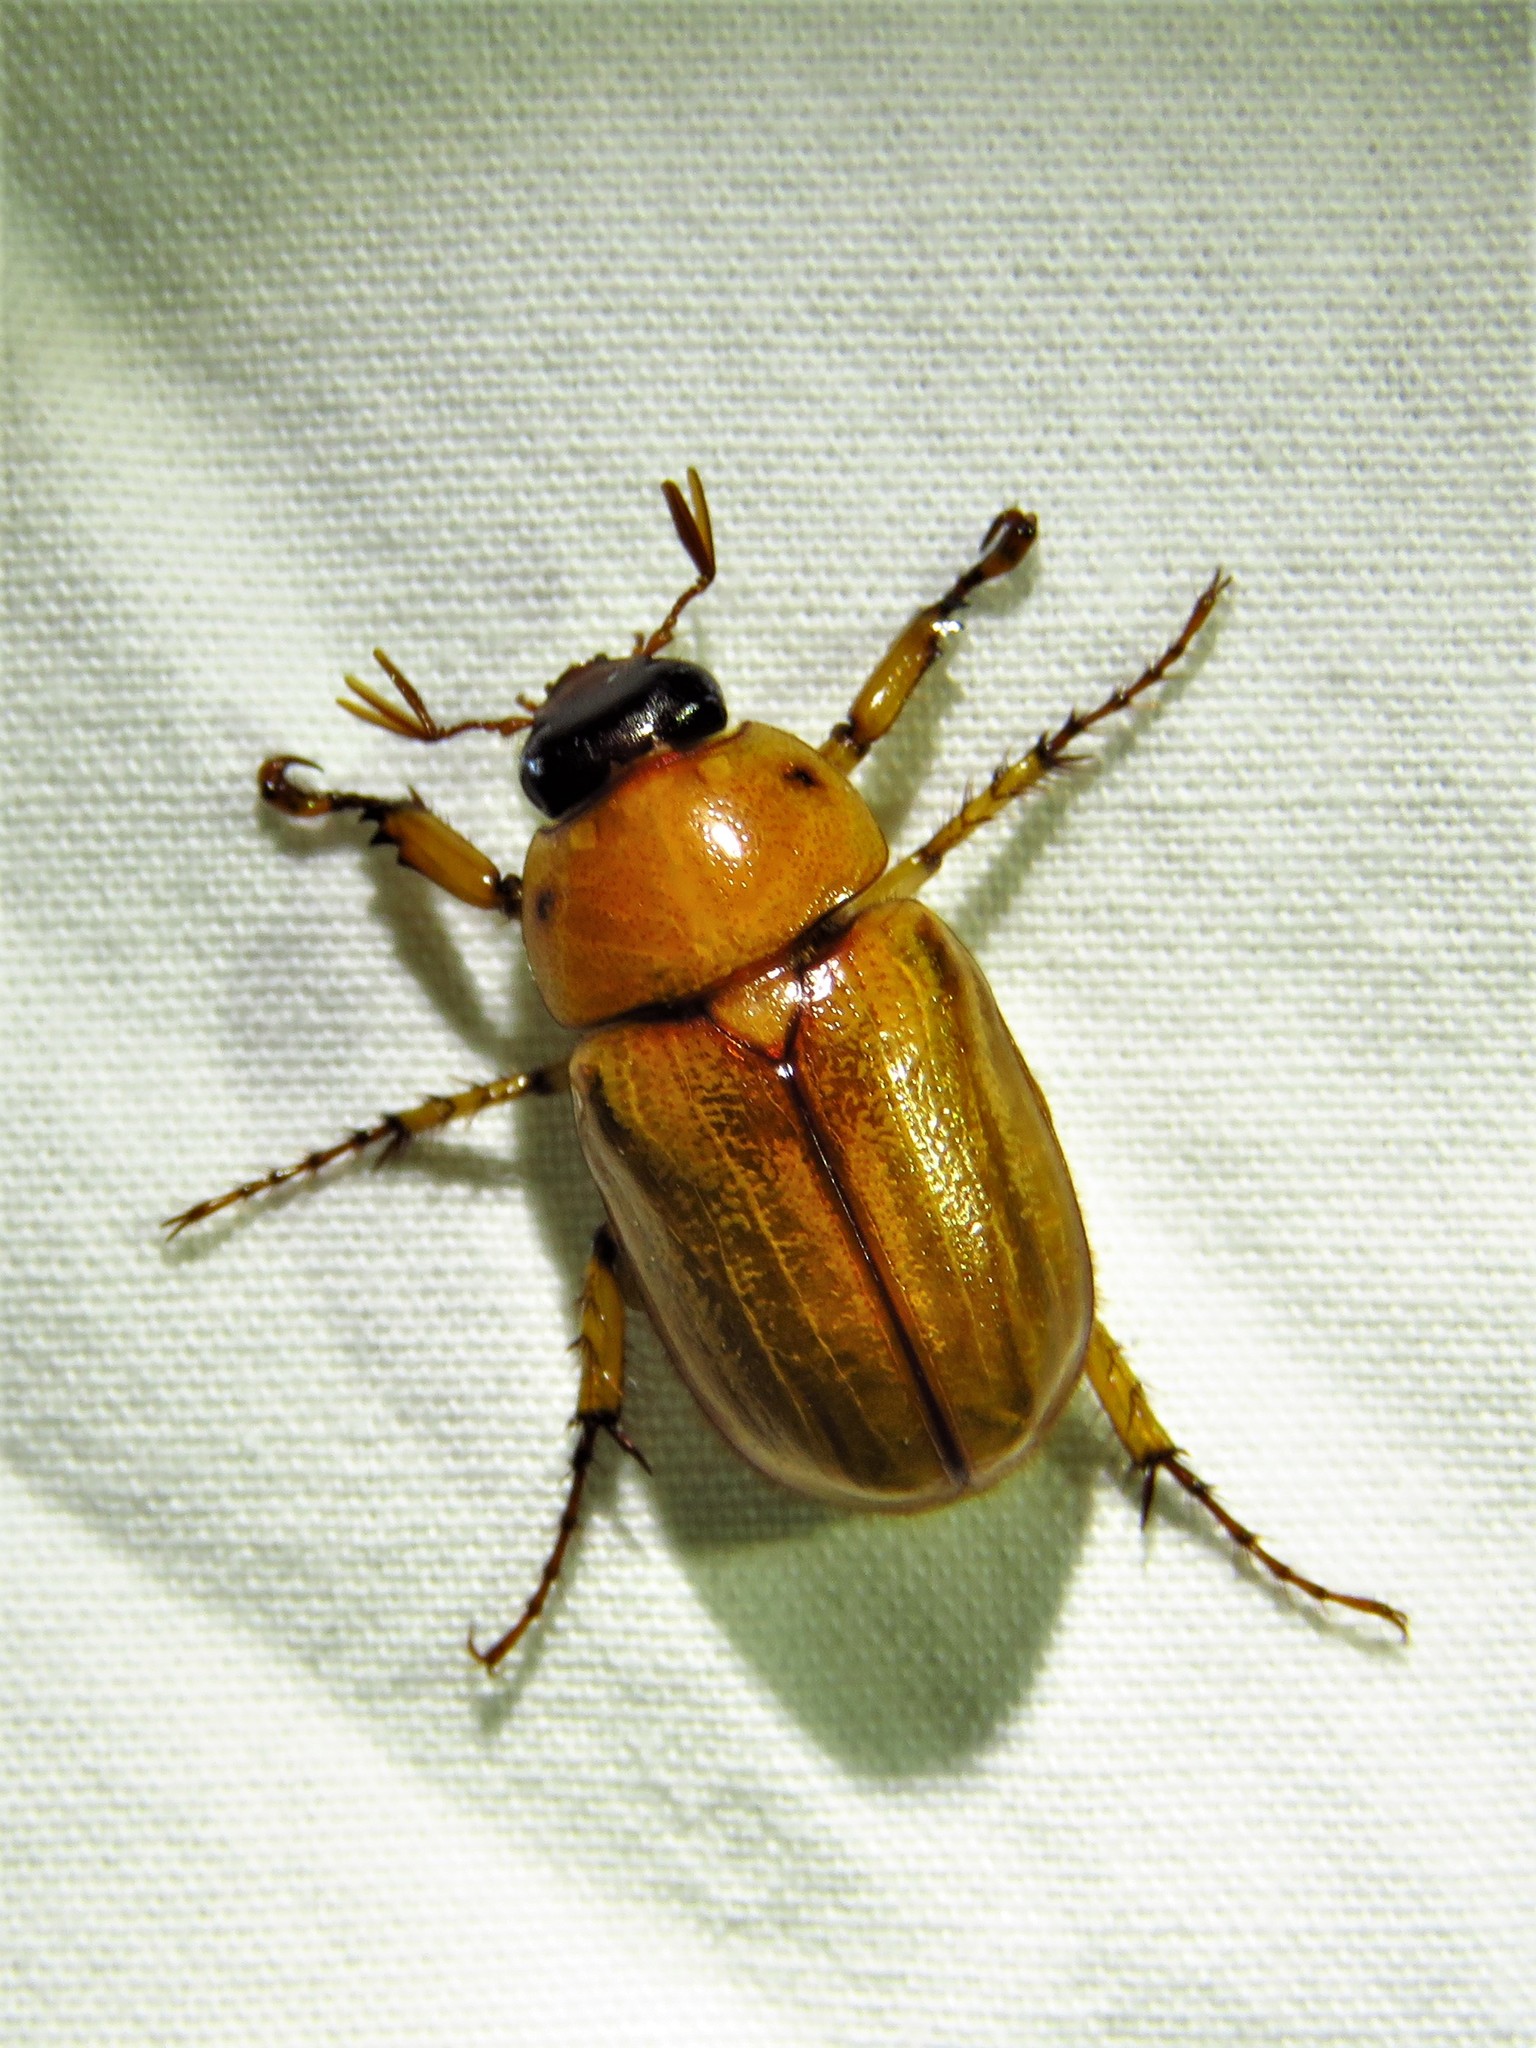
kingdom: Animalia
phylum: Arthropoda
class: Insecta
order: Coleoptera
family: Scarabaeidae
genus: Cyclocephala
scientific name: Cyclocephala lurida
